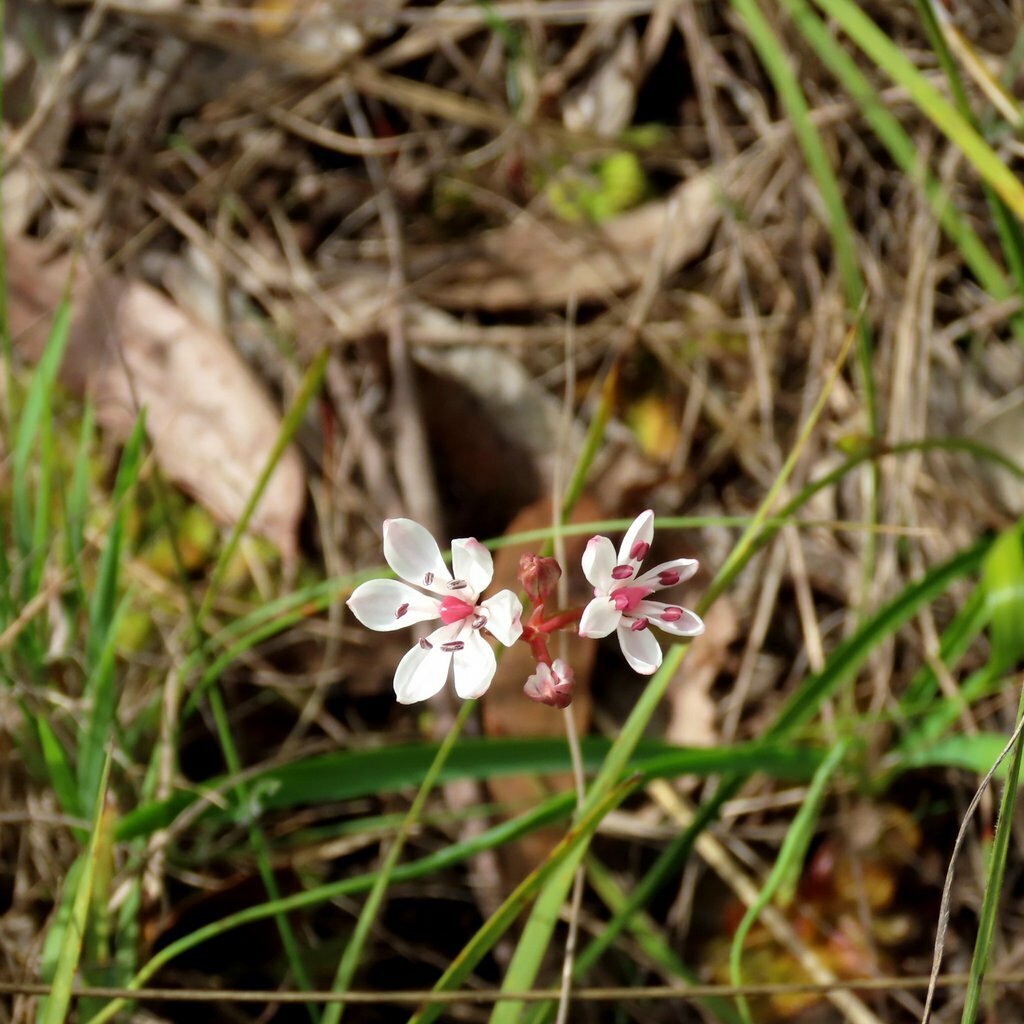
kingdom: Plantae
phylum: Tracheophyta
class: Liliopsida
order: Liliales
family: Colchicaceae
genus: Burchardia
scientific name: Burchardia umbellata
